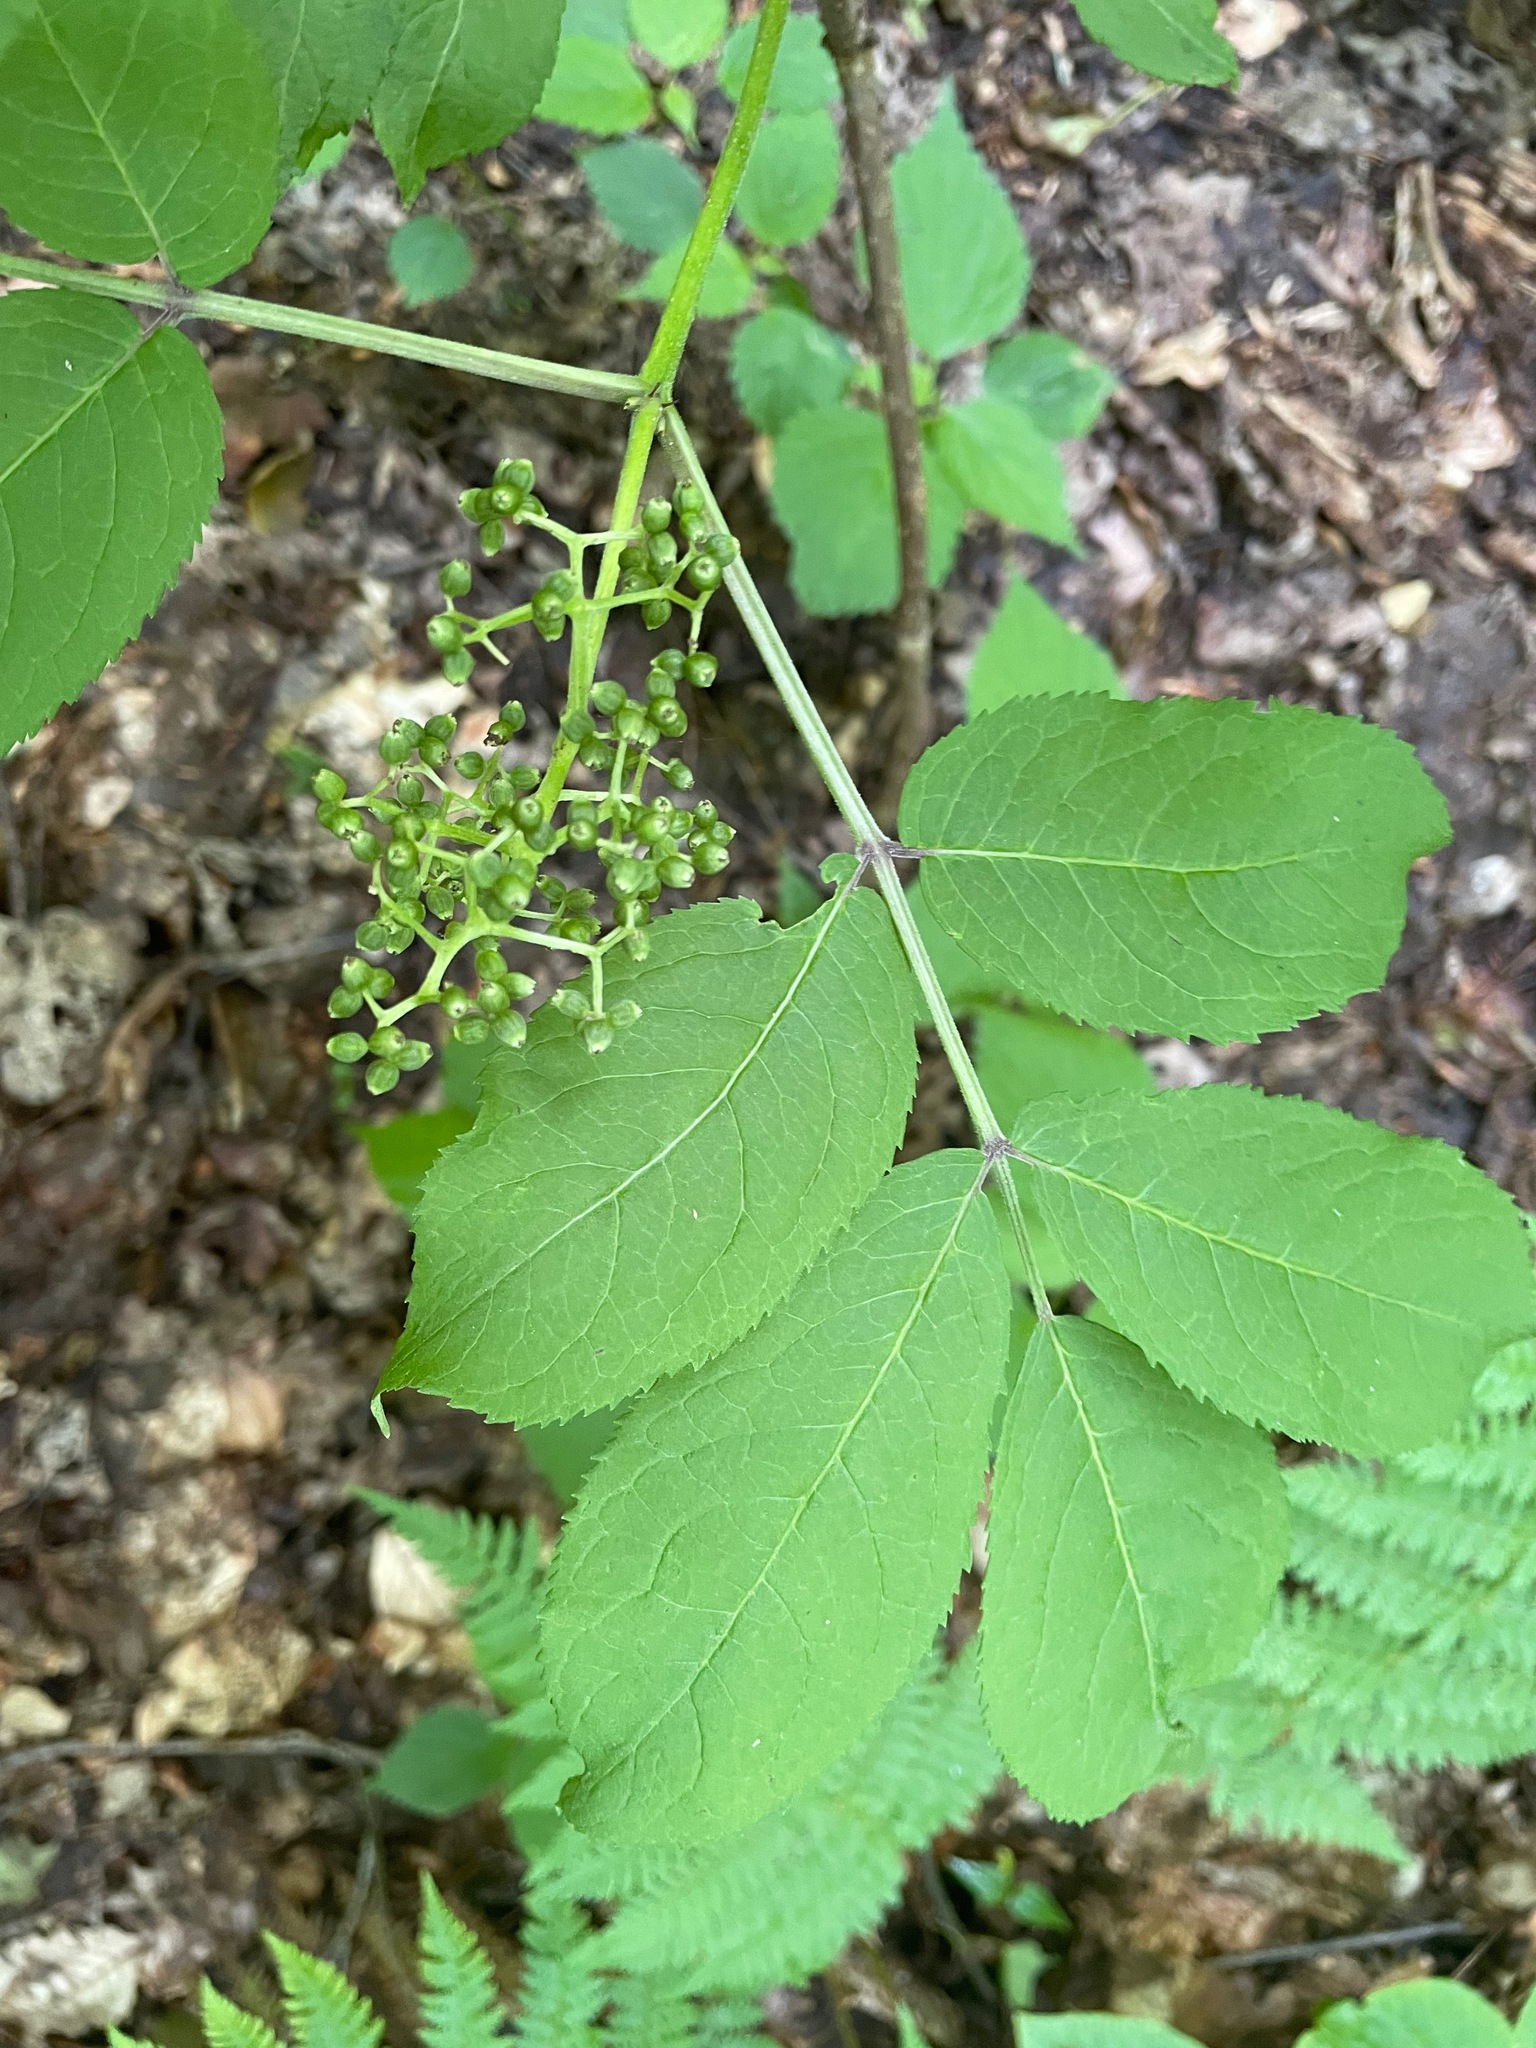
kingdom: Plantae
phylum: Tracheophyta
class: Magnoliopsida
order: Dipsacales
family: Viburnaceae
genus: Sambucus
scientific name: Sambucus racemosa
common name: Red-berried elder
